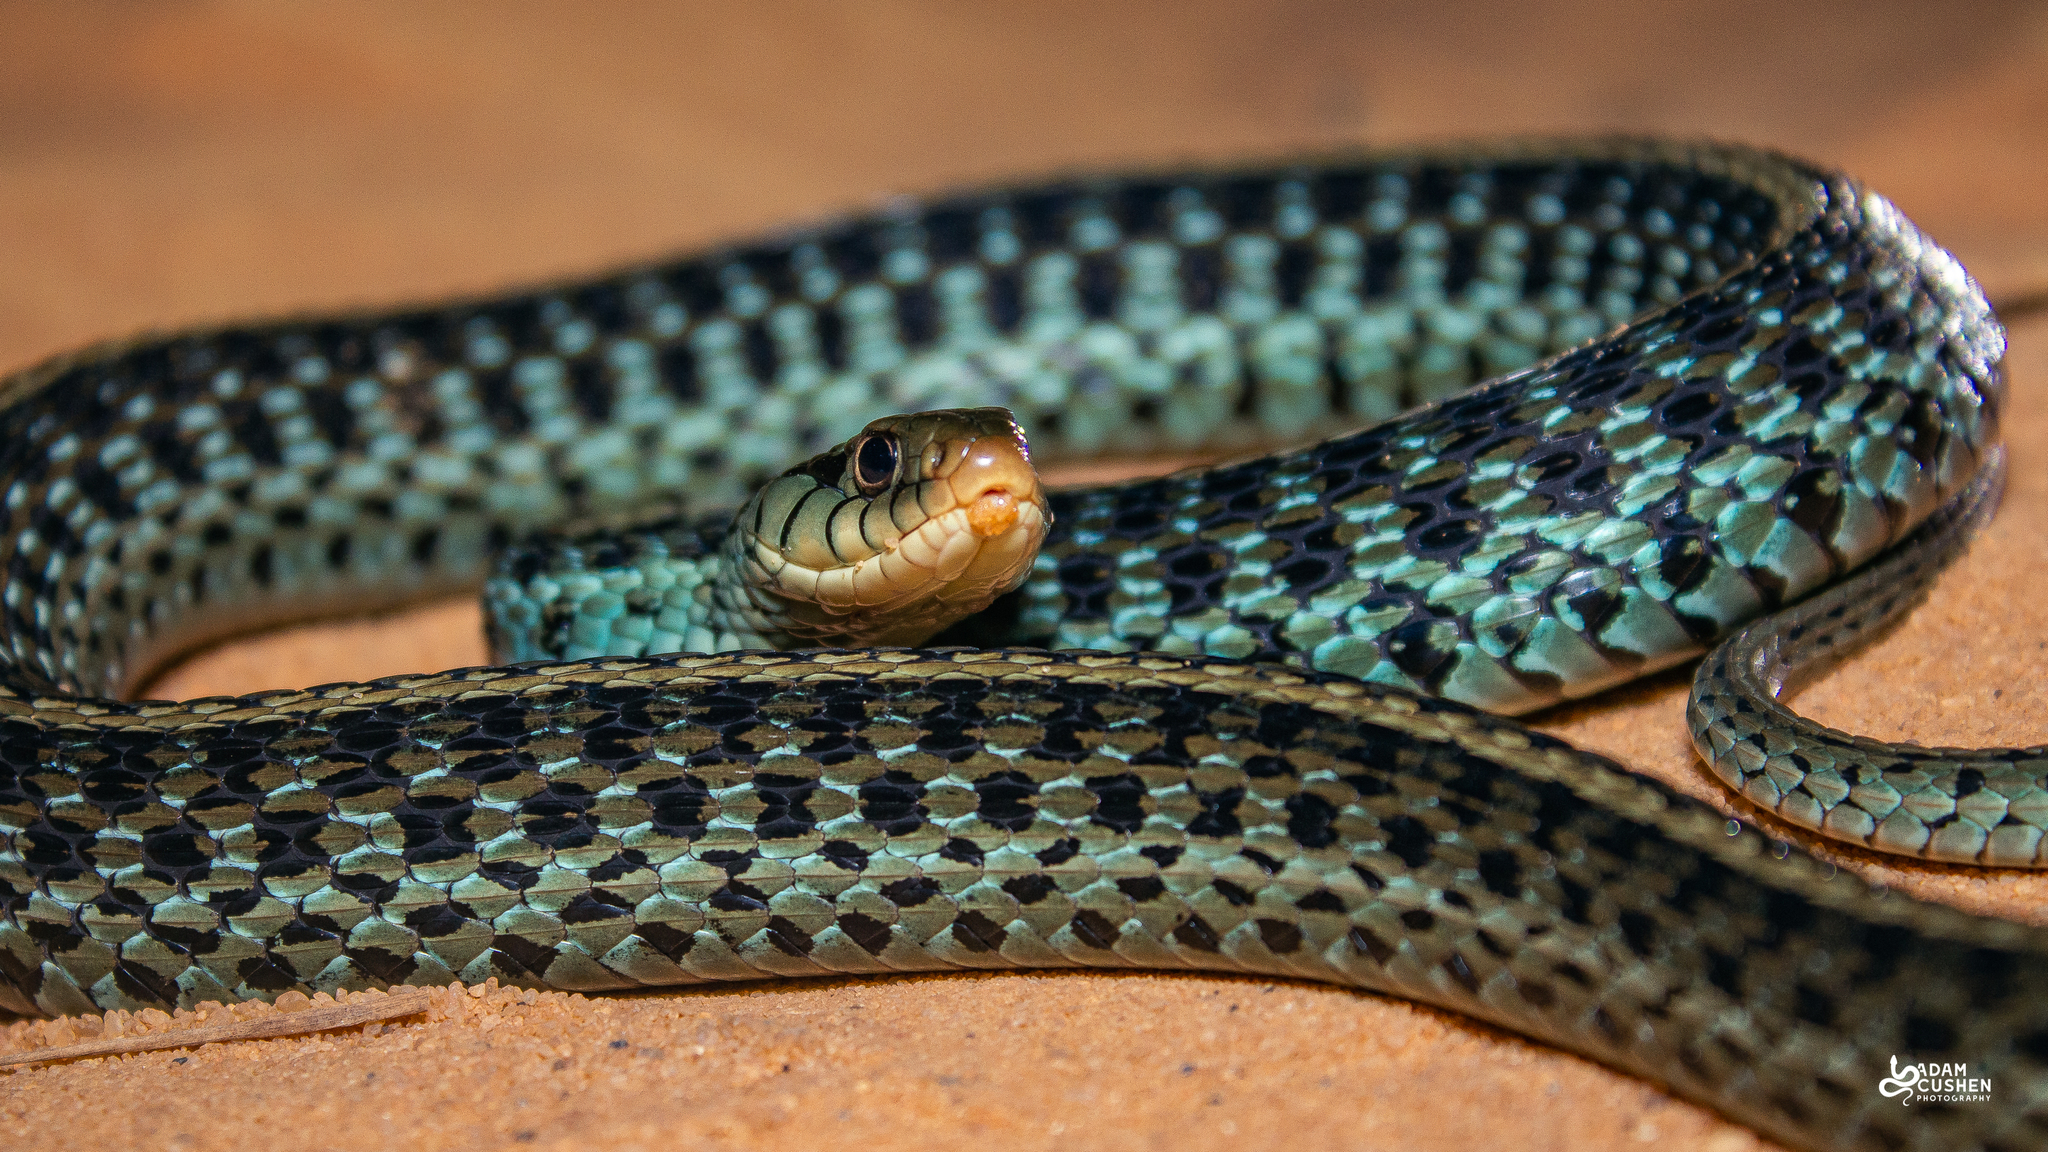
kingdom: Animalia
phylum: Chordata
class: Squamata
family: Colubridae
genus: Thamnophis
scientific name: Thamnophis sirtalis
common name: Common garter snake
